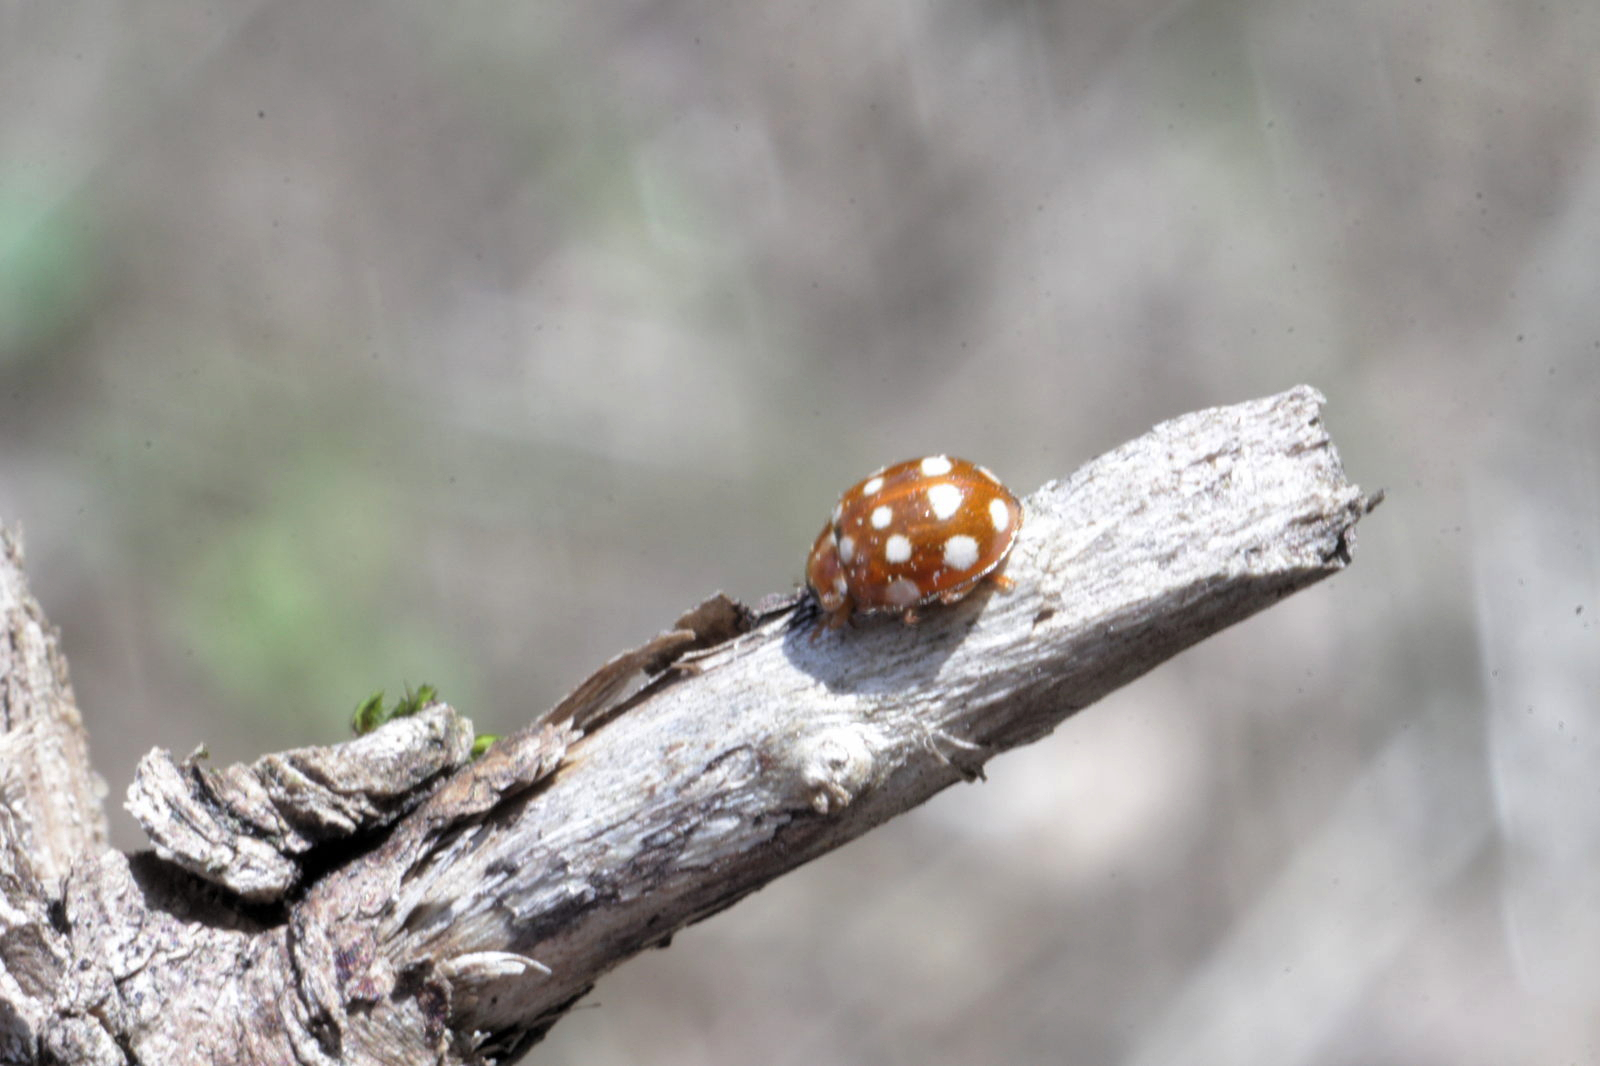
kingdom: Animalia
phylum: Arthropoda
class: Insecta
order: Coleoptera
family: Coccinellidae
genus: Calvia
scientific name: Calvia quatuordecimguttata
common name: Cream-spot ladybird
